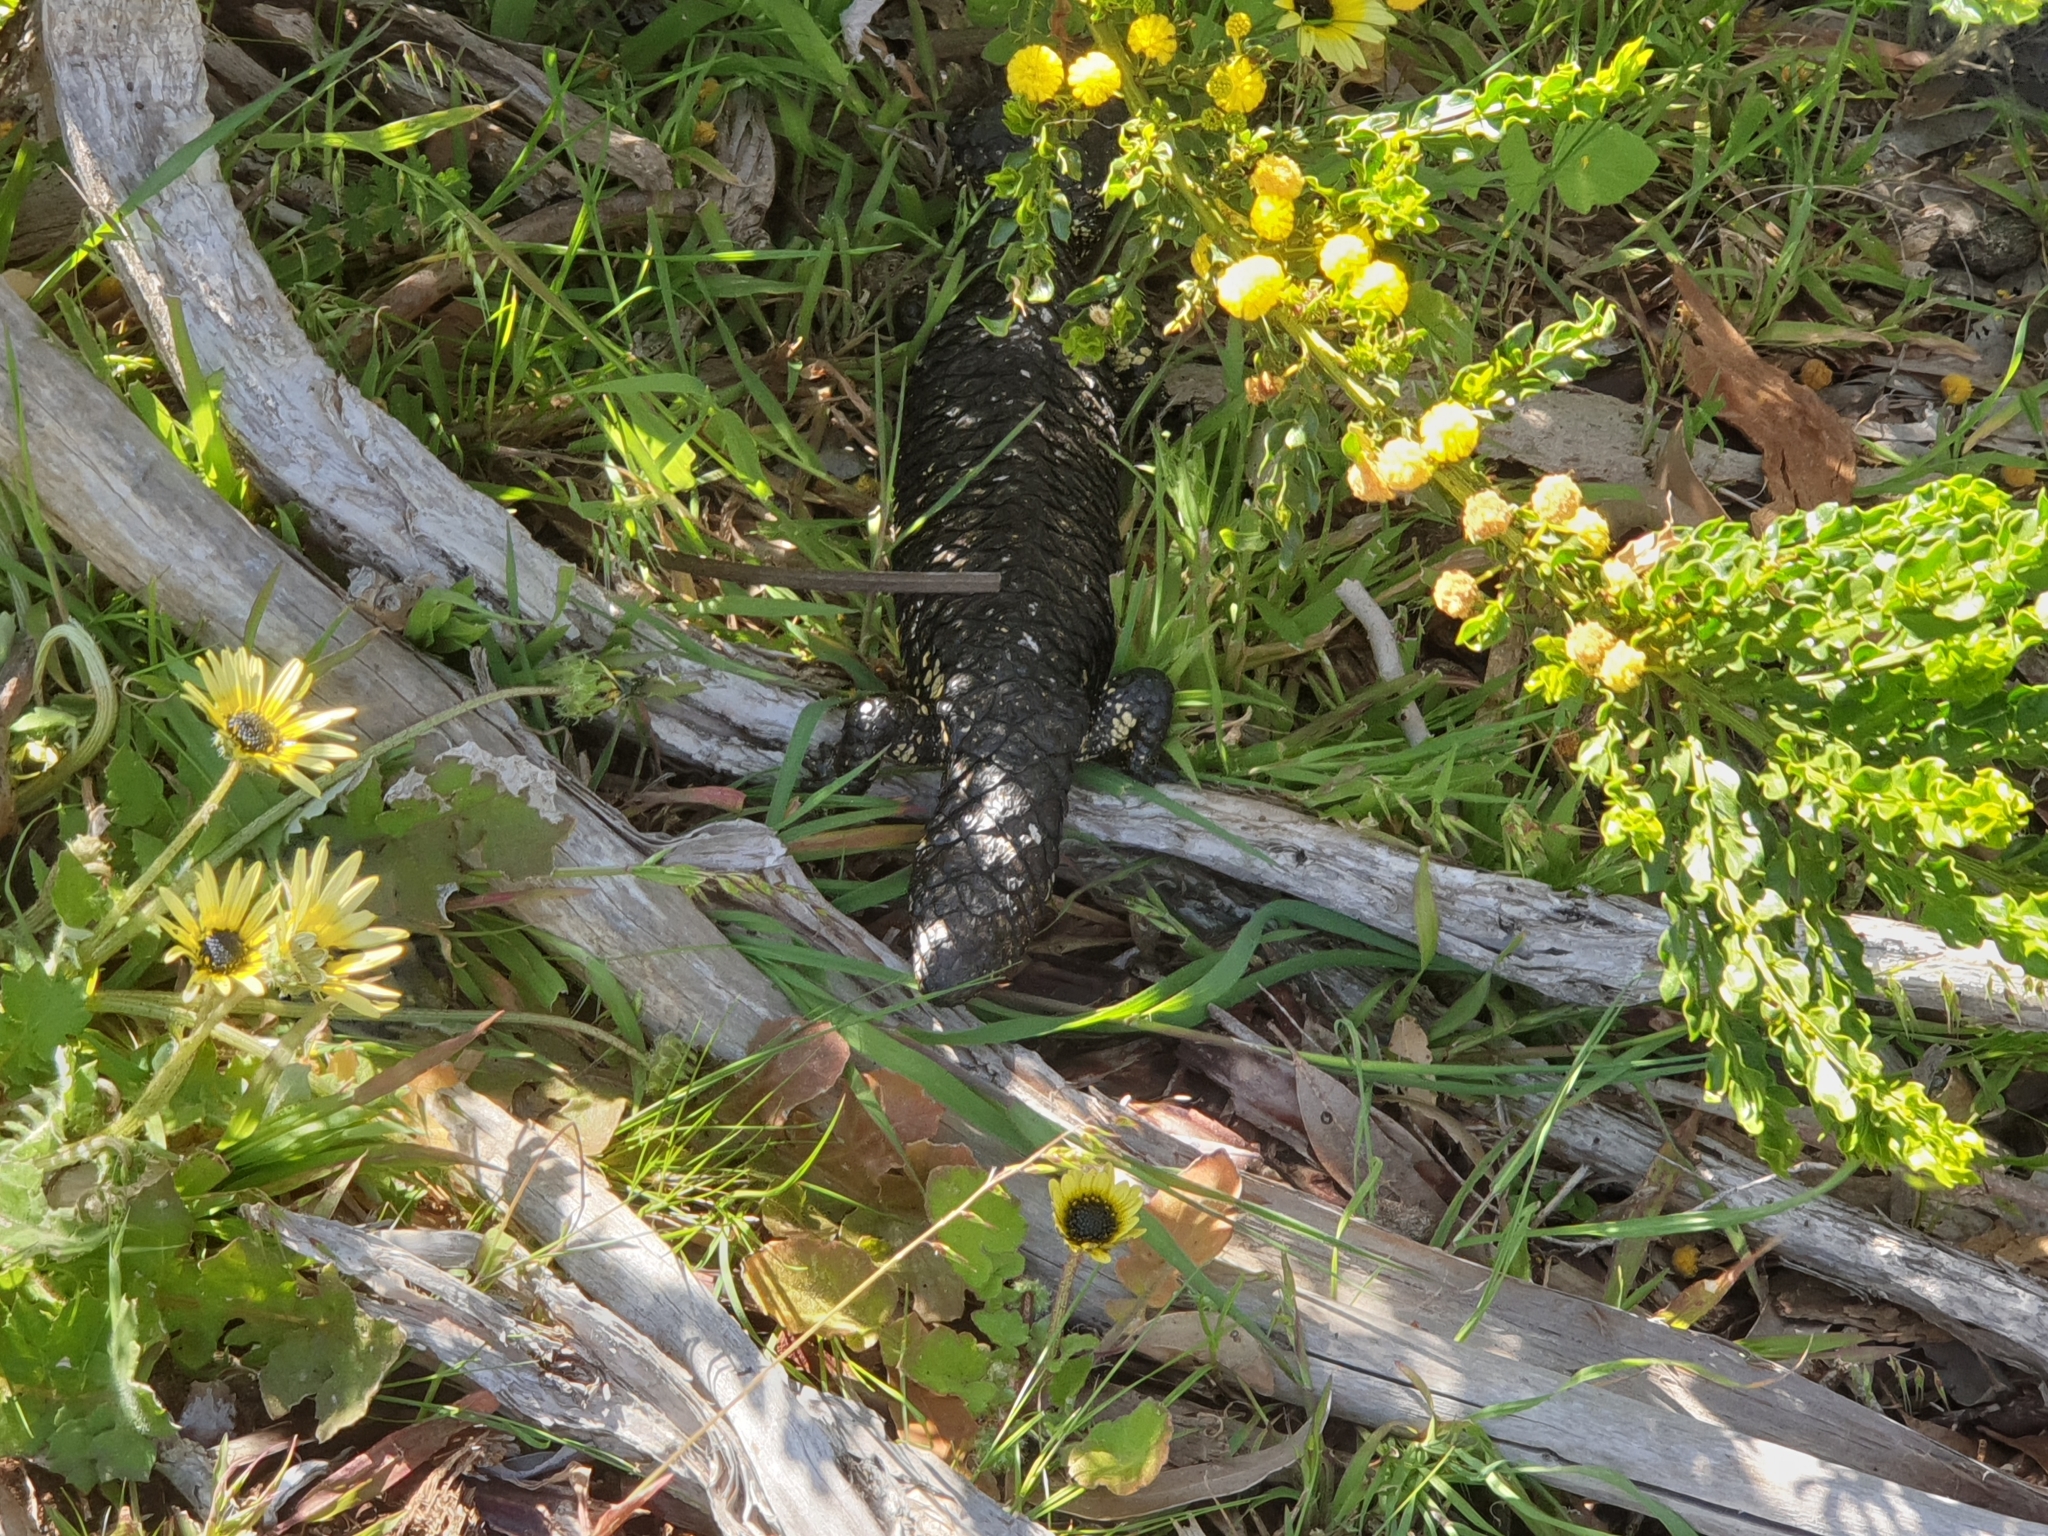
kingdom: Animalia
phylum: Chordata
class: Squamata
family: Scincidae
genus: Tiliqua
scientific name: Tiliqua rugosa
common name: Pinecone lizard
